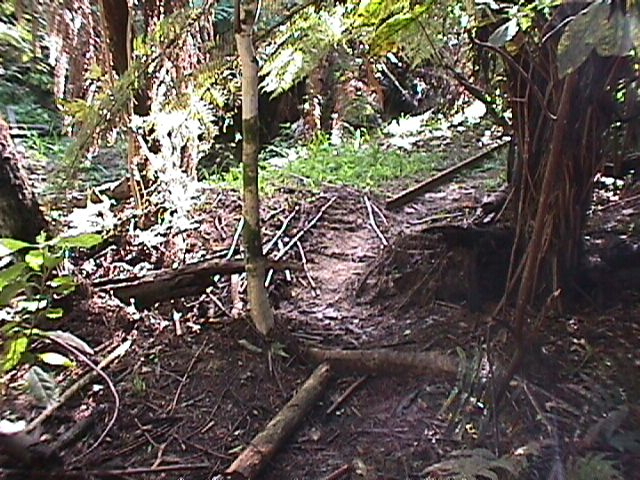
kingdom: Plantae
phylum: Tracheophyta
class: Magnoliopsida
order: Malpighiales
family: Violaceae
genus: Melicytus
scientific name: Melicytus ramiflorus
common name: Mahoe
